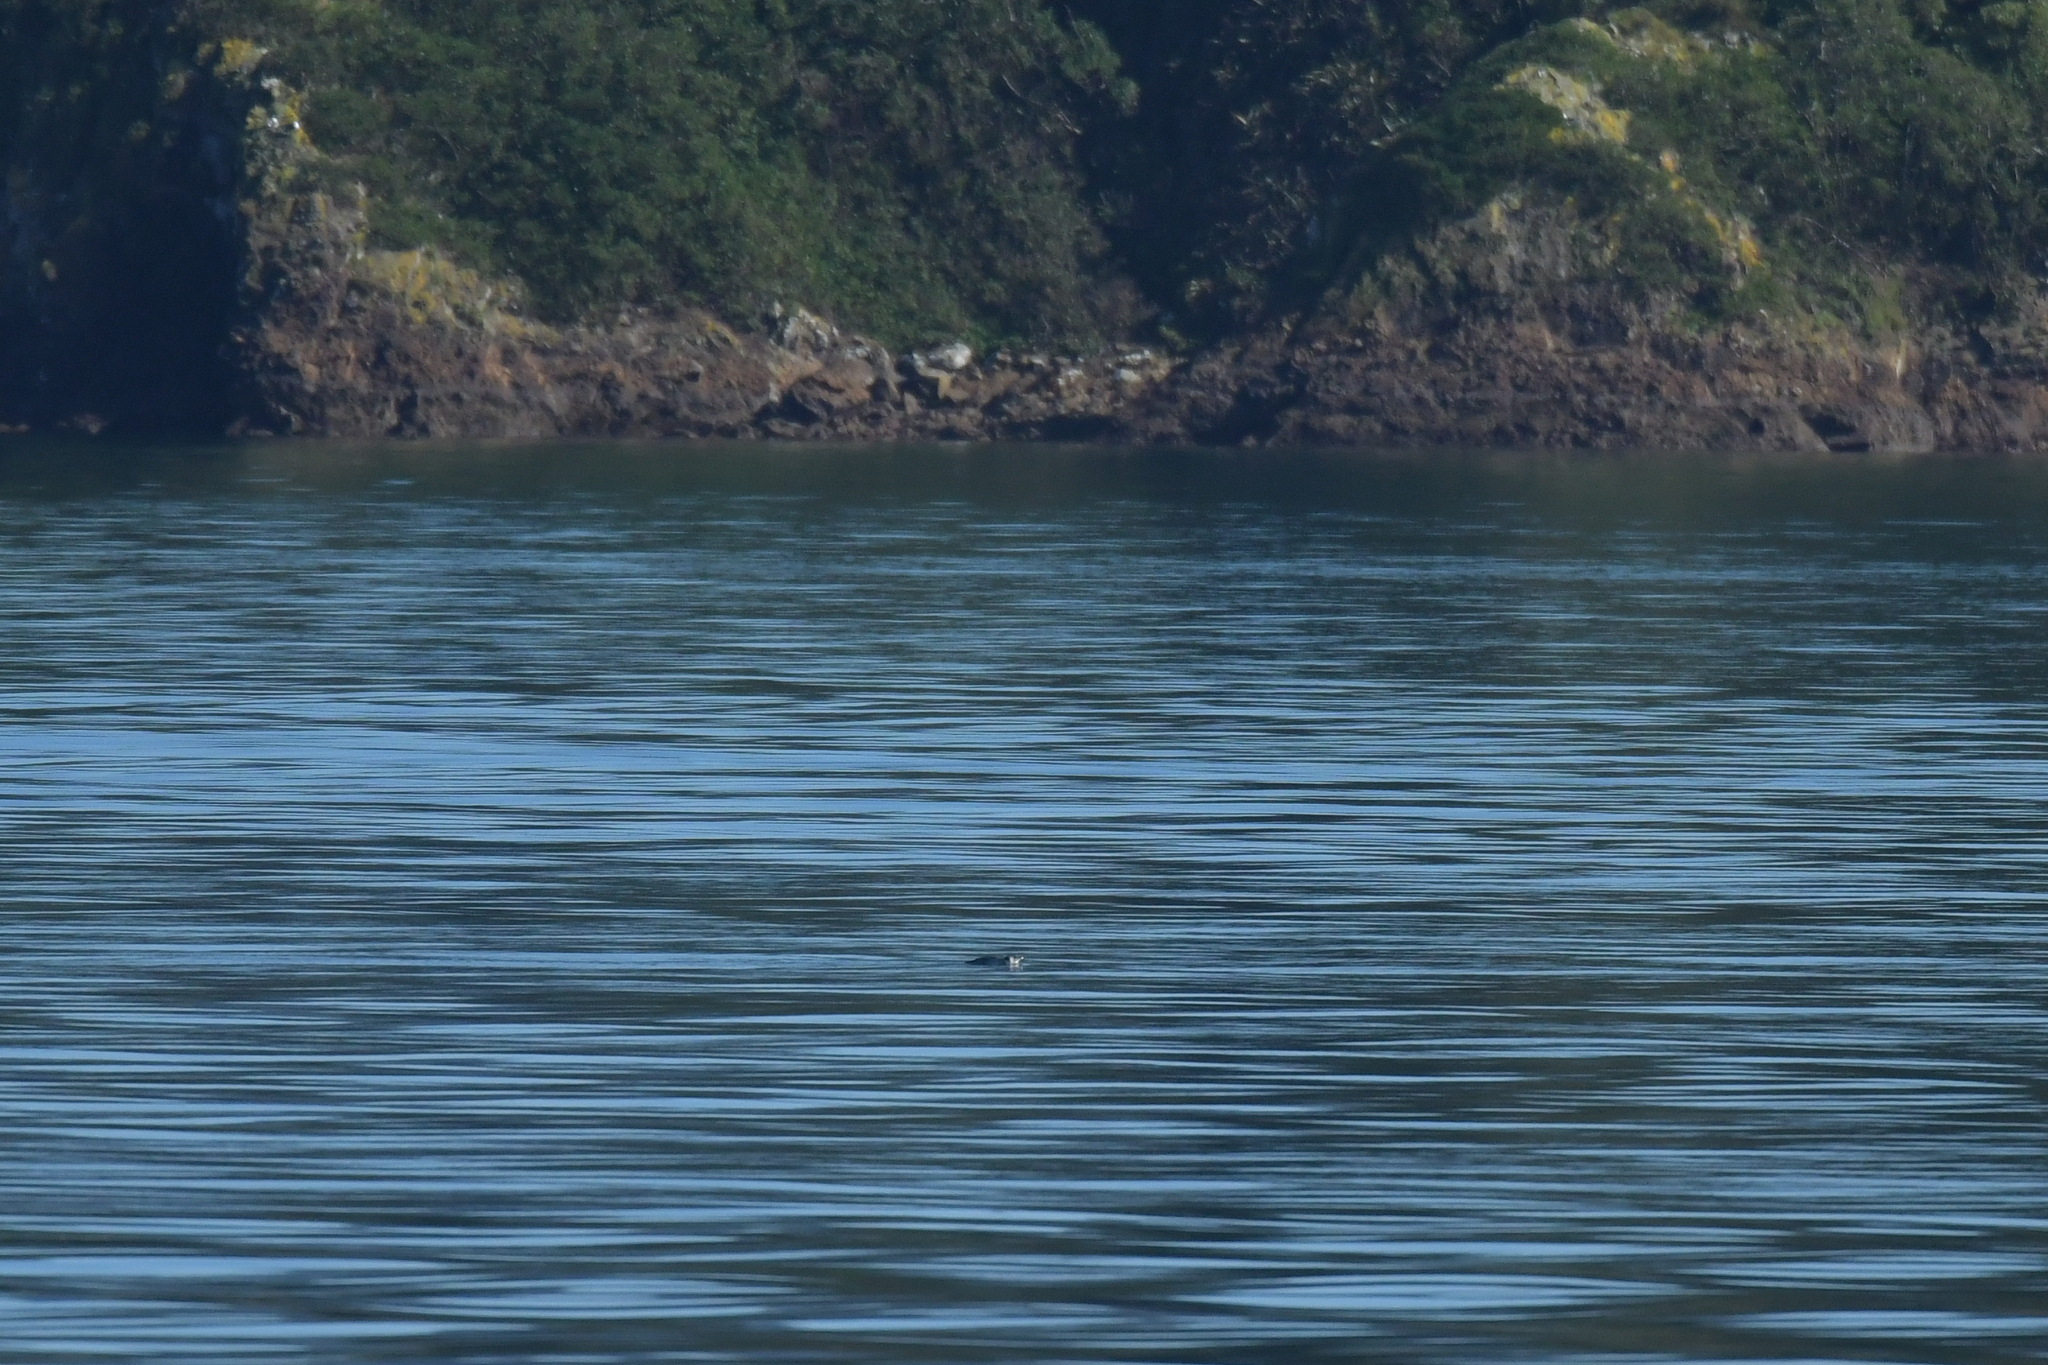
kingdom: Animalia
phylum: Chordata
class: Aves
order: Sphenisciformes
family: Spheniscidae
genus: Eudyptula
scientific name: Eudyptula minor
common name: Little penguin
